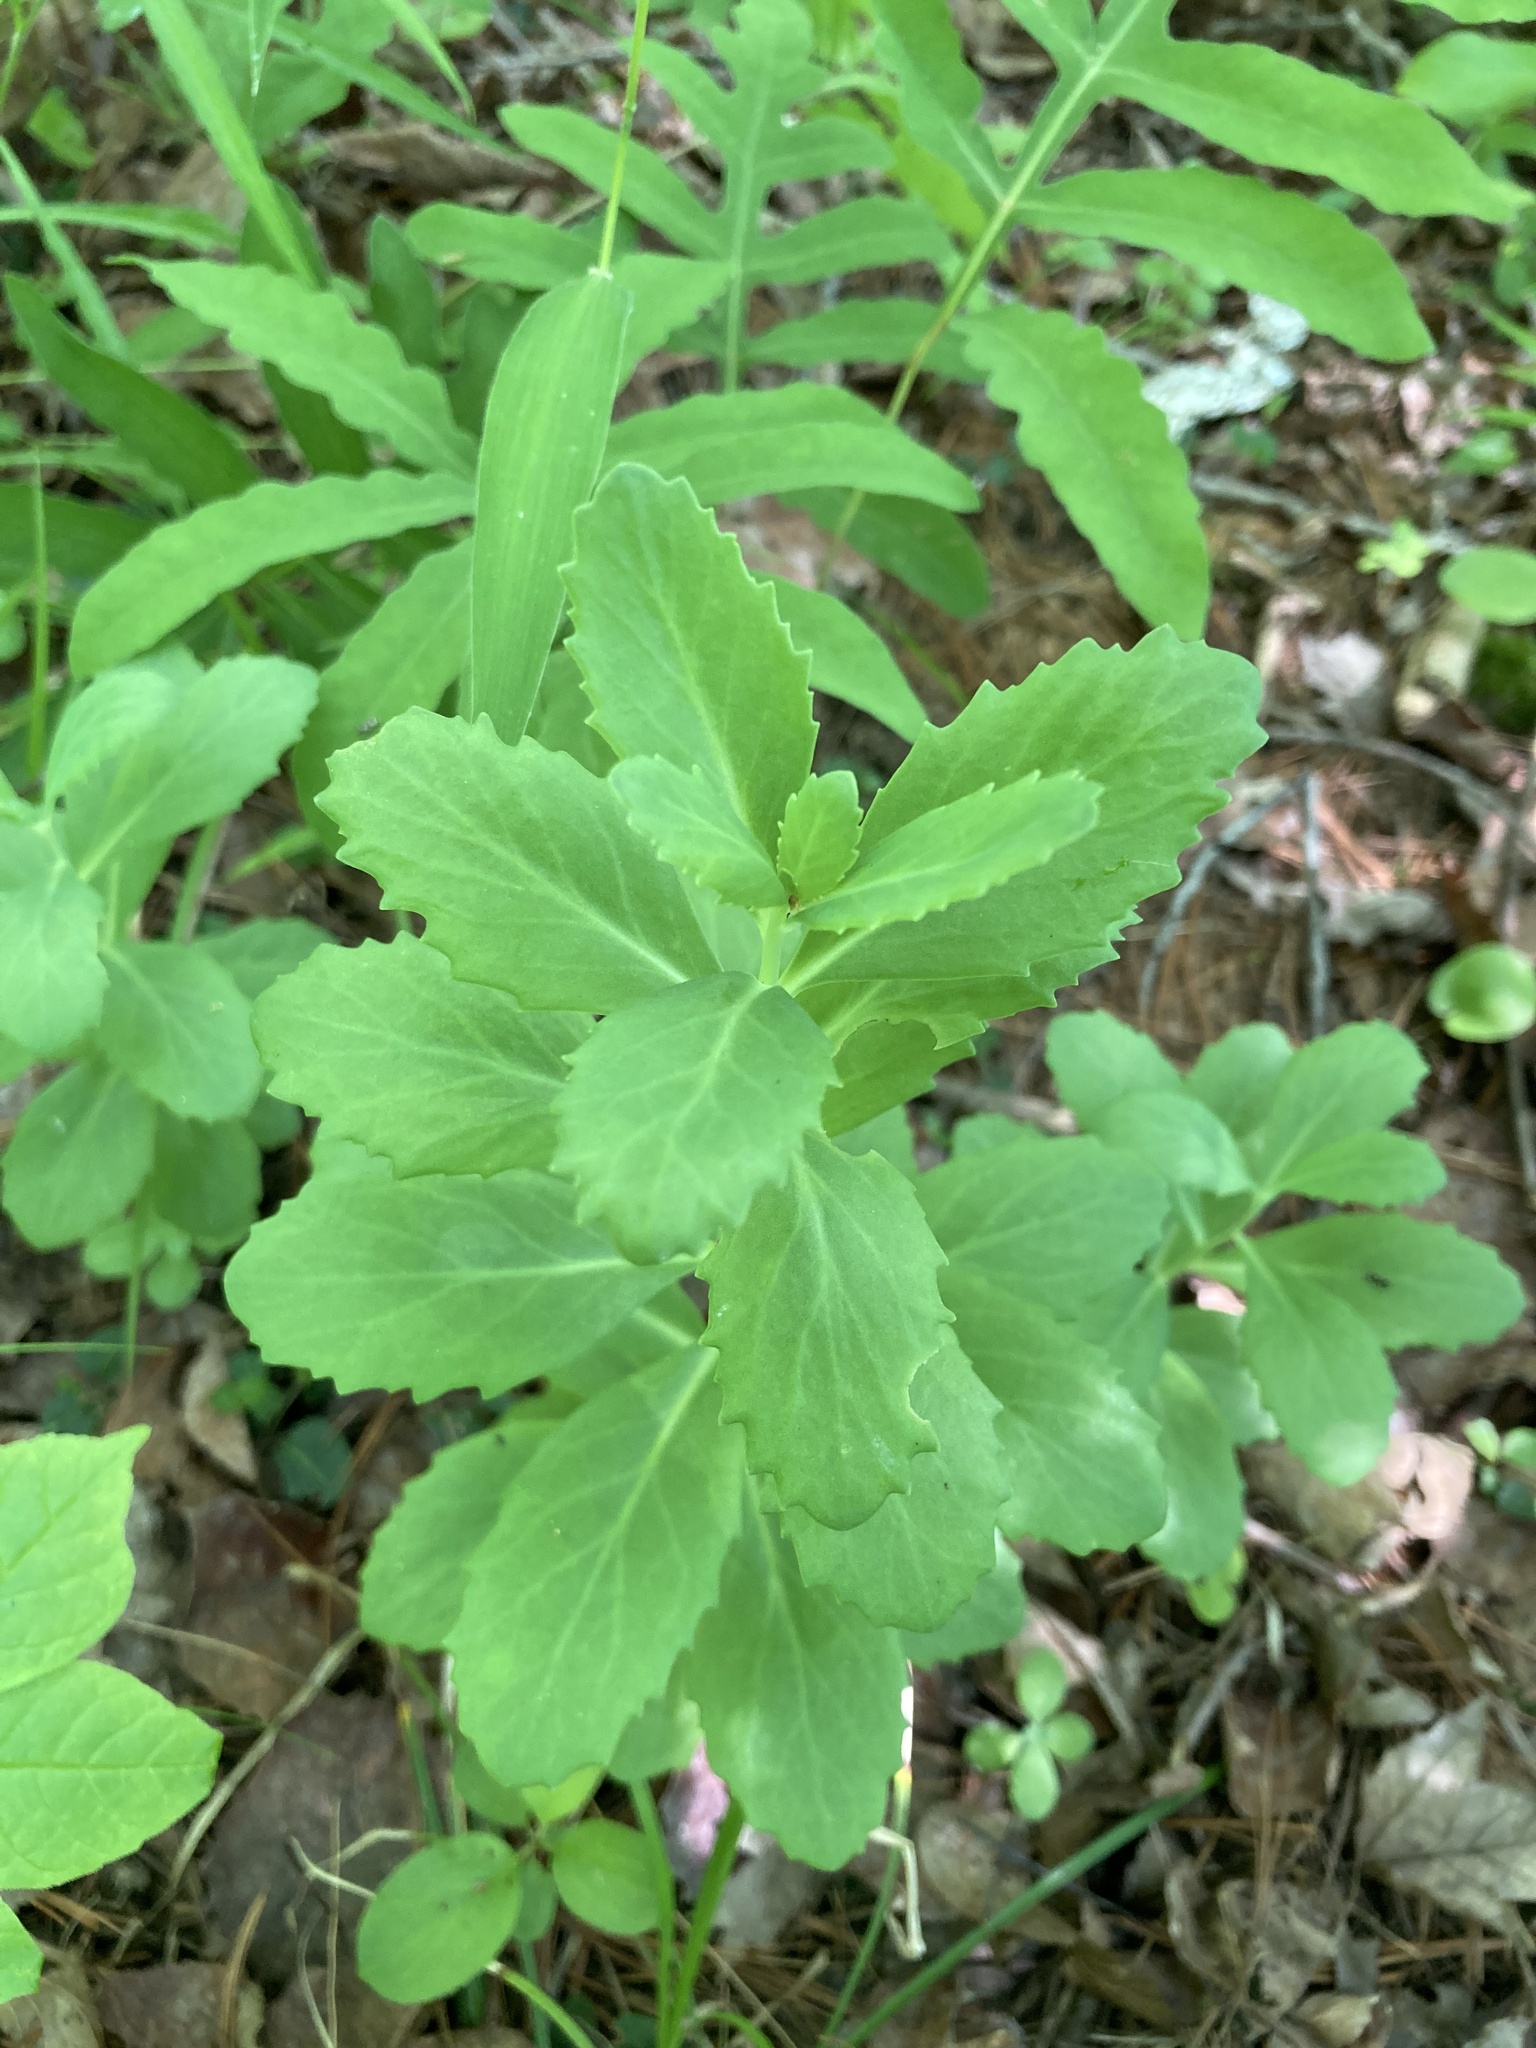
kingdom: Plantae
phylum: Tracheophyta
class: Magnoliopsida
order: Saxifragales
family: Crassulaceae
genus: Hylotelephium
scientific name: Hylotelephium telephium
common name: Live-forever
